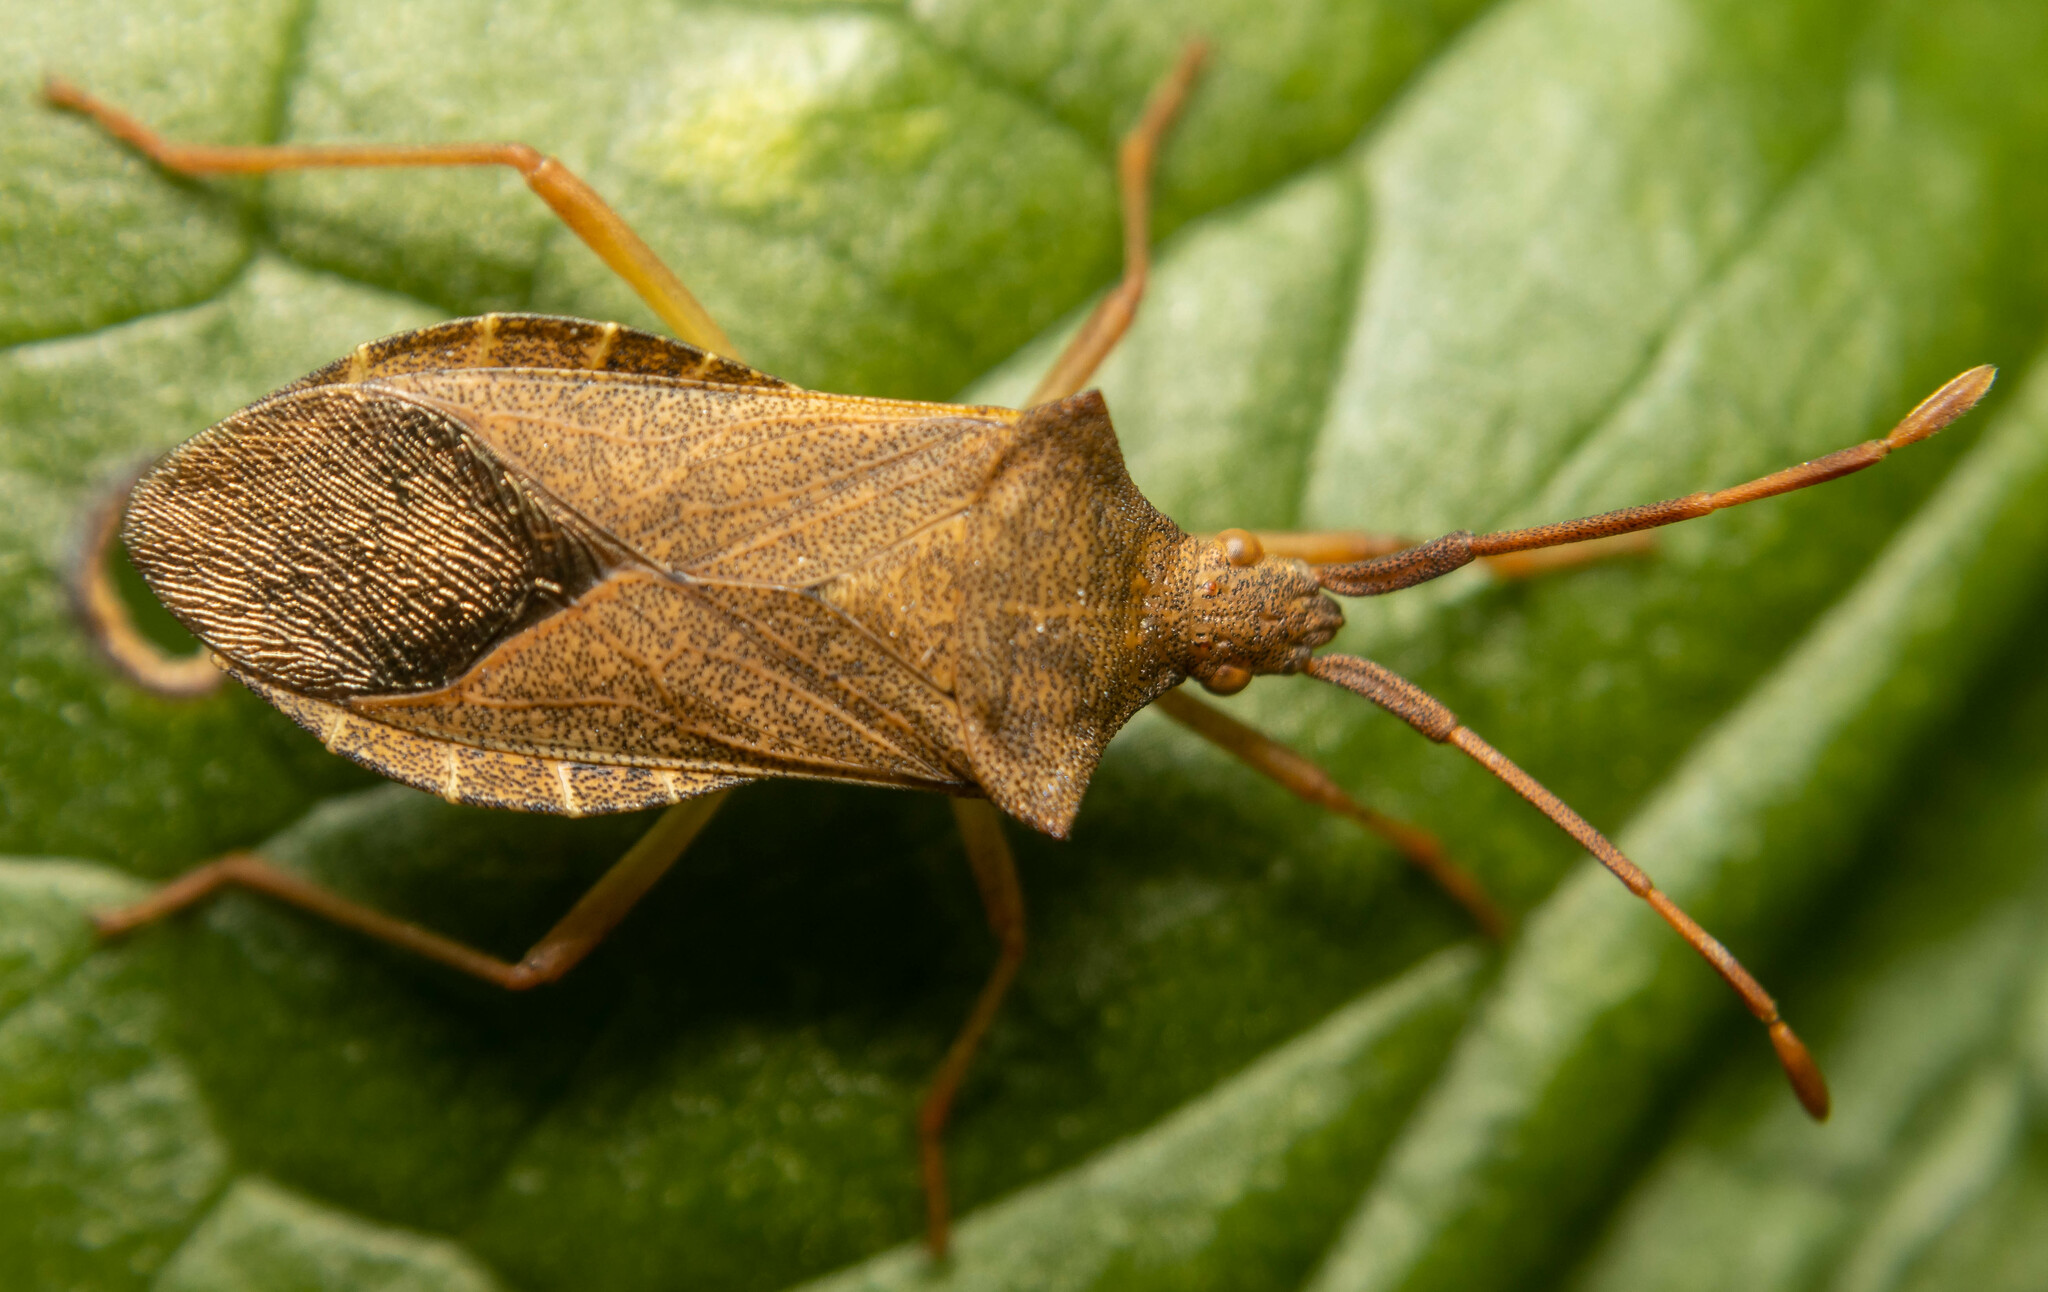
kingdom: Animalia
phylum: Arthropoda
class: Insecta
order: Hemiptera
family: Coreidae
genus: Gonocerus
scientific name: Gonocerus acuteangulatus
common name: Box bug
